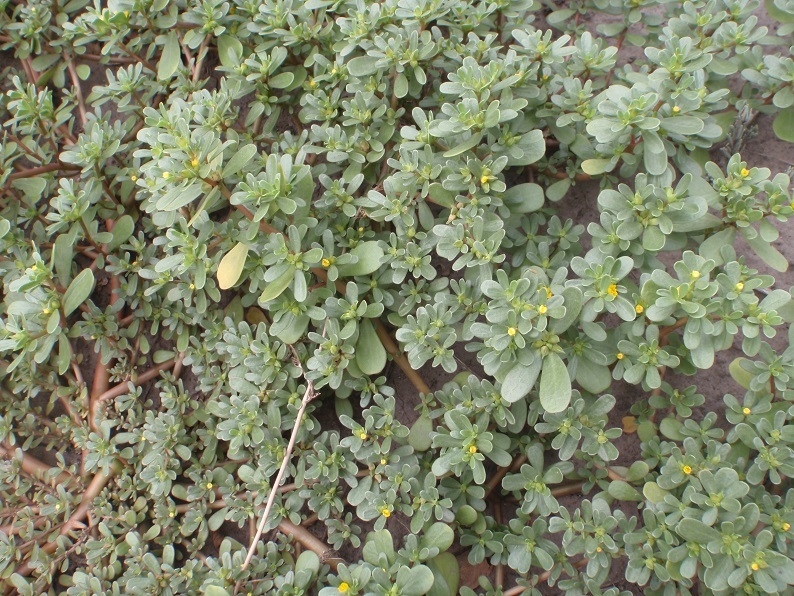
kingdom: Plantae
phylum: Tracheophyta
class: Magnoliopsida
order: Caryophyllales
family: Portulacaceae
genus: Portulaca
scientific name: Portulaca oleracea
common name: Common purslane
